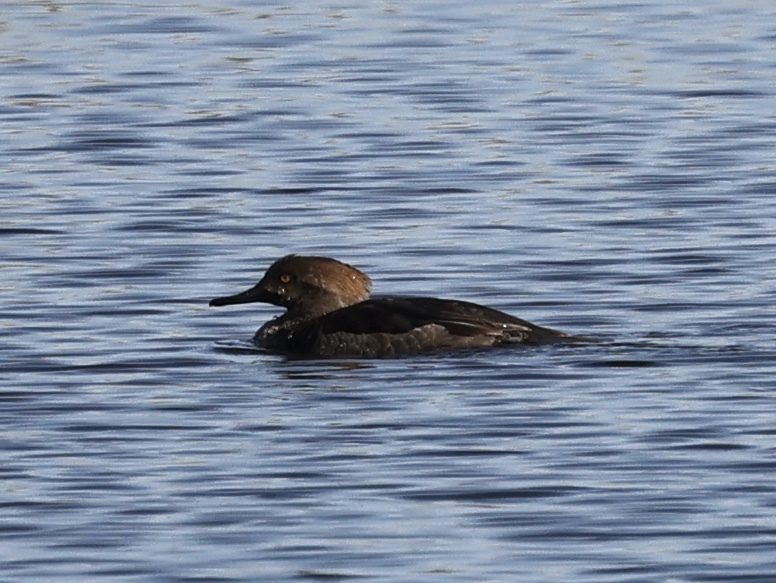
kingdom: Animalia
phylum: Chordata
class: Aves
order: Anseriformes
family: Anatidae
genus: Lophodytes
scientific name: Lophodytes cucullatus
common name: Hooded merganser
